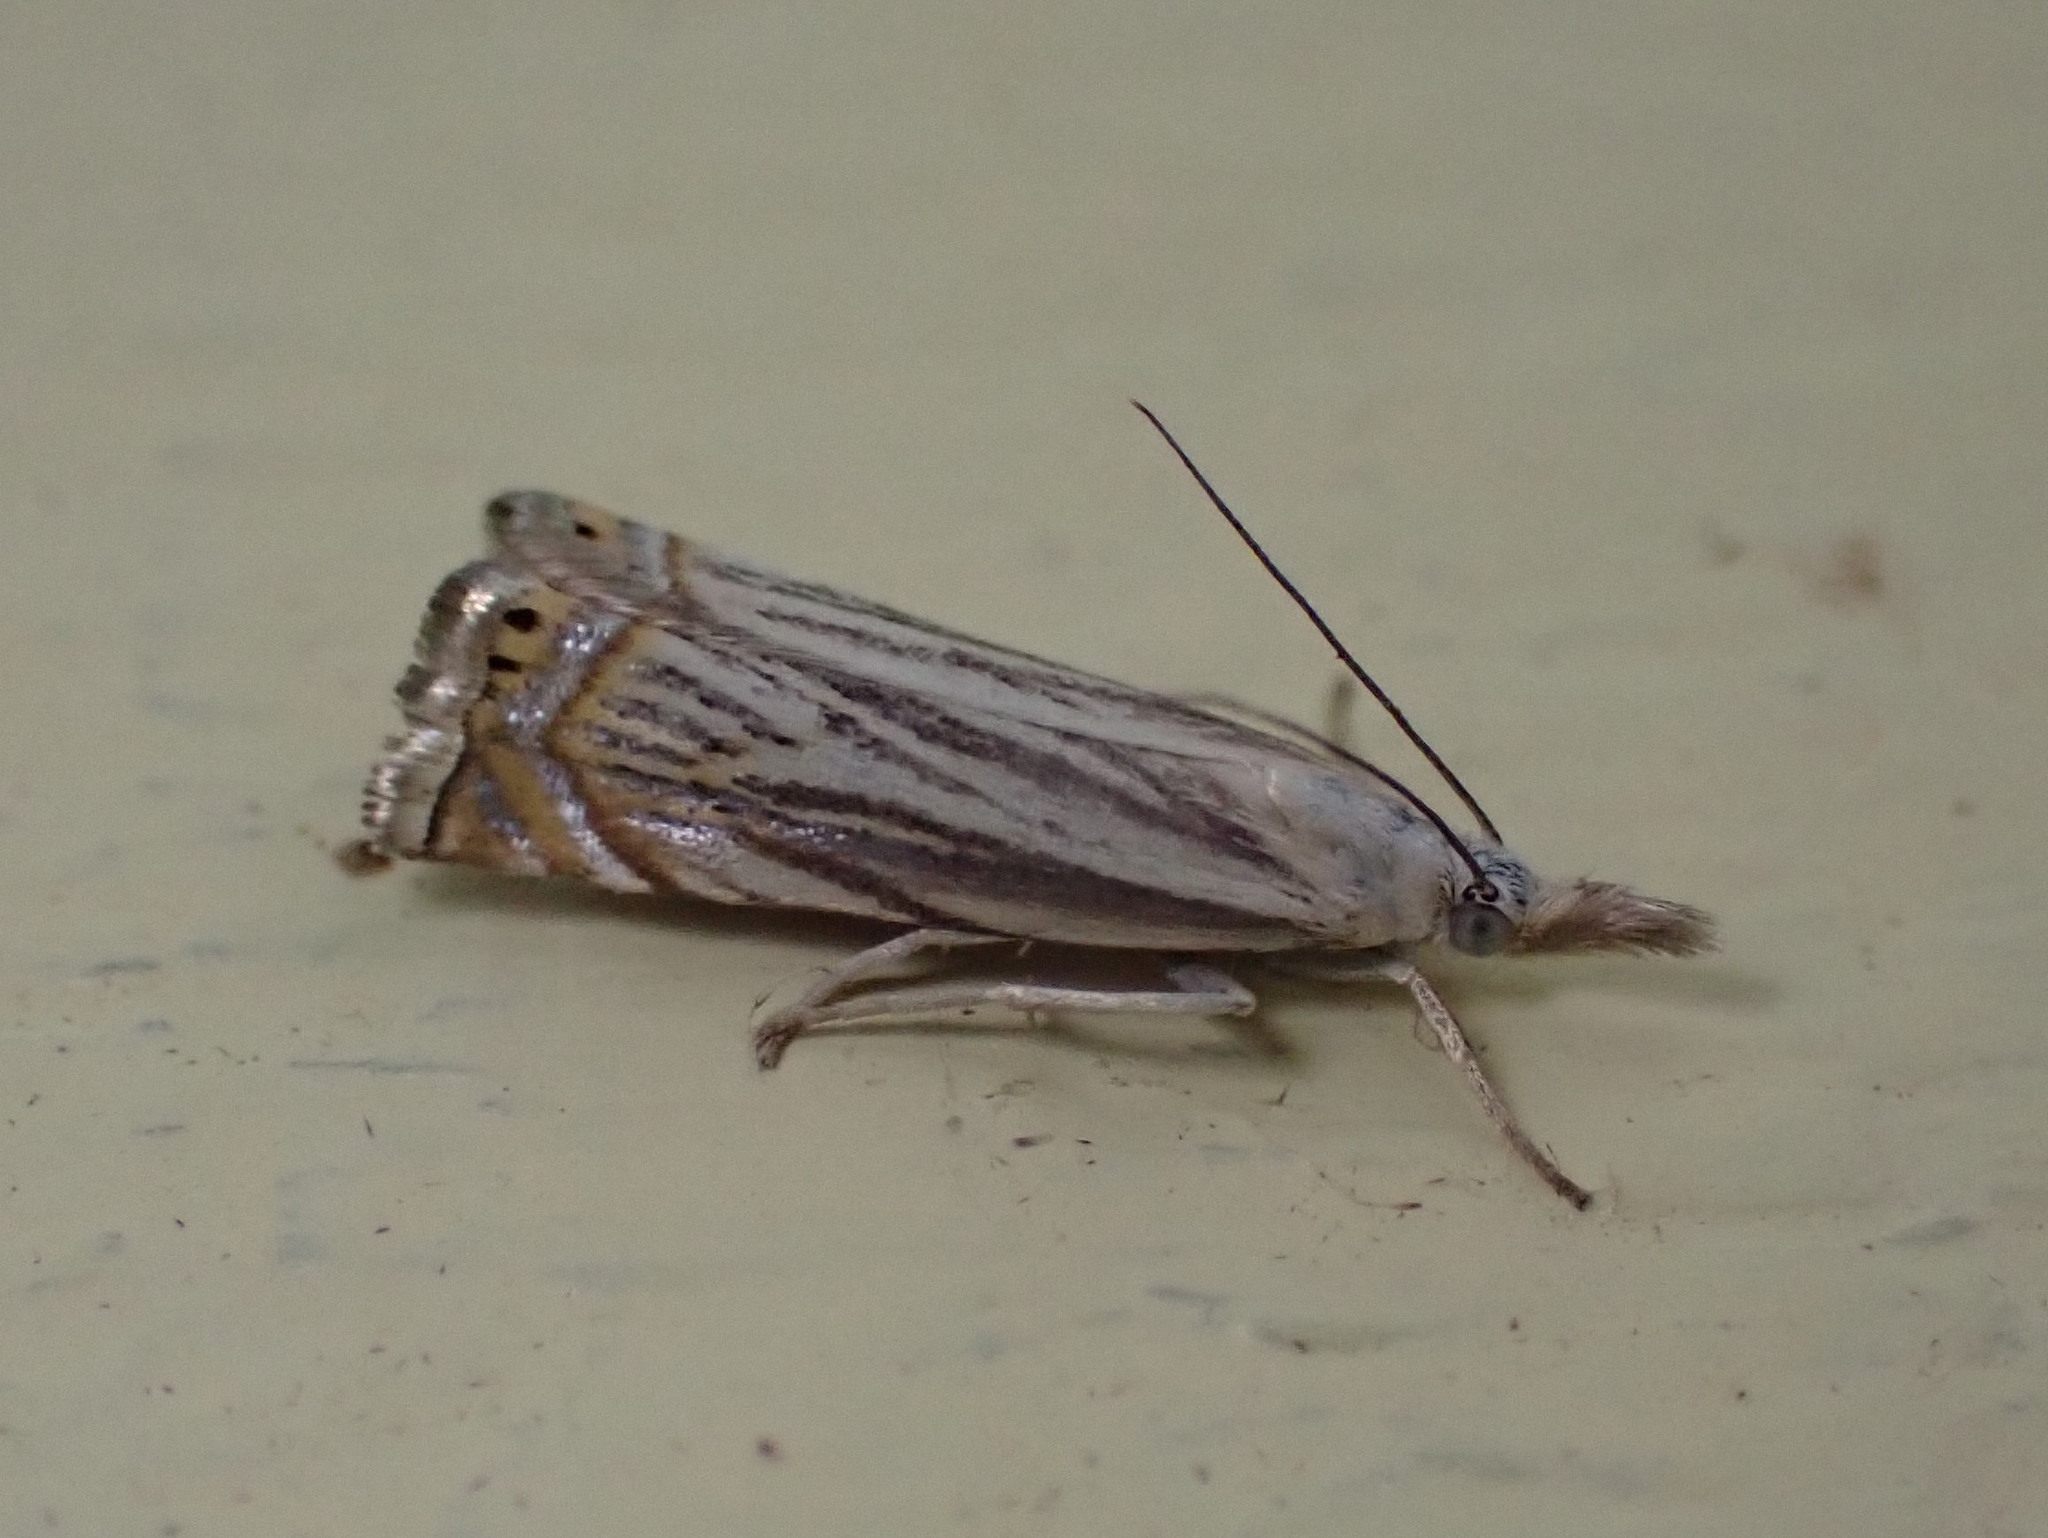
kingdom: Animalia
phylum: Arthropoda
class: Insecta
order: Lepidoptera
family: Crambidae
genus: Chrysoteuchia
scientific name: Chrysoteuchia topiarius
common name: Topiary grass-veneer
